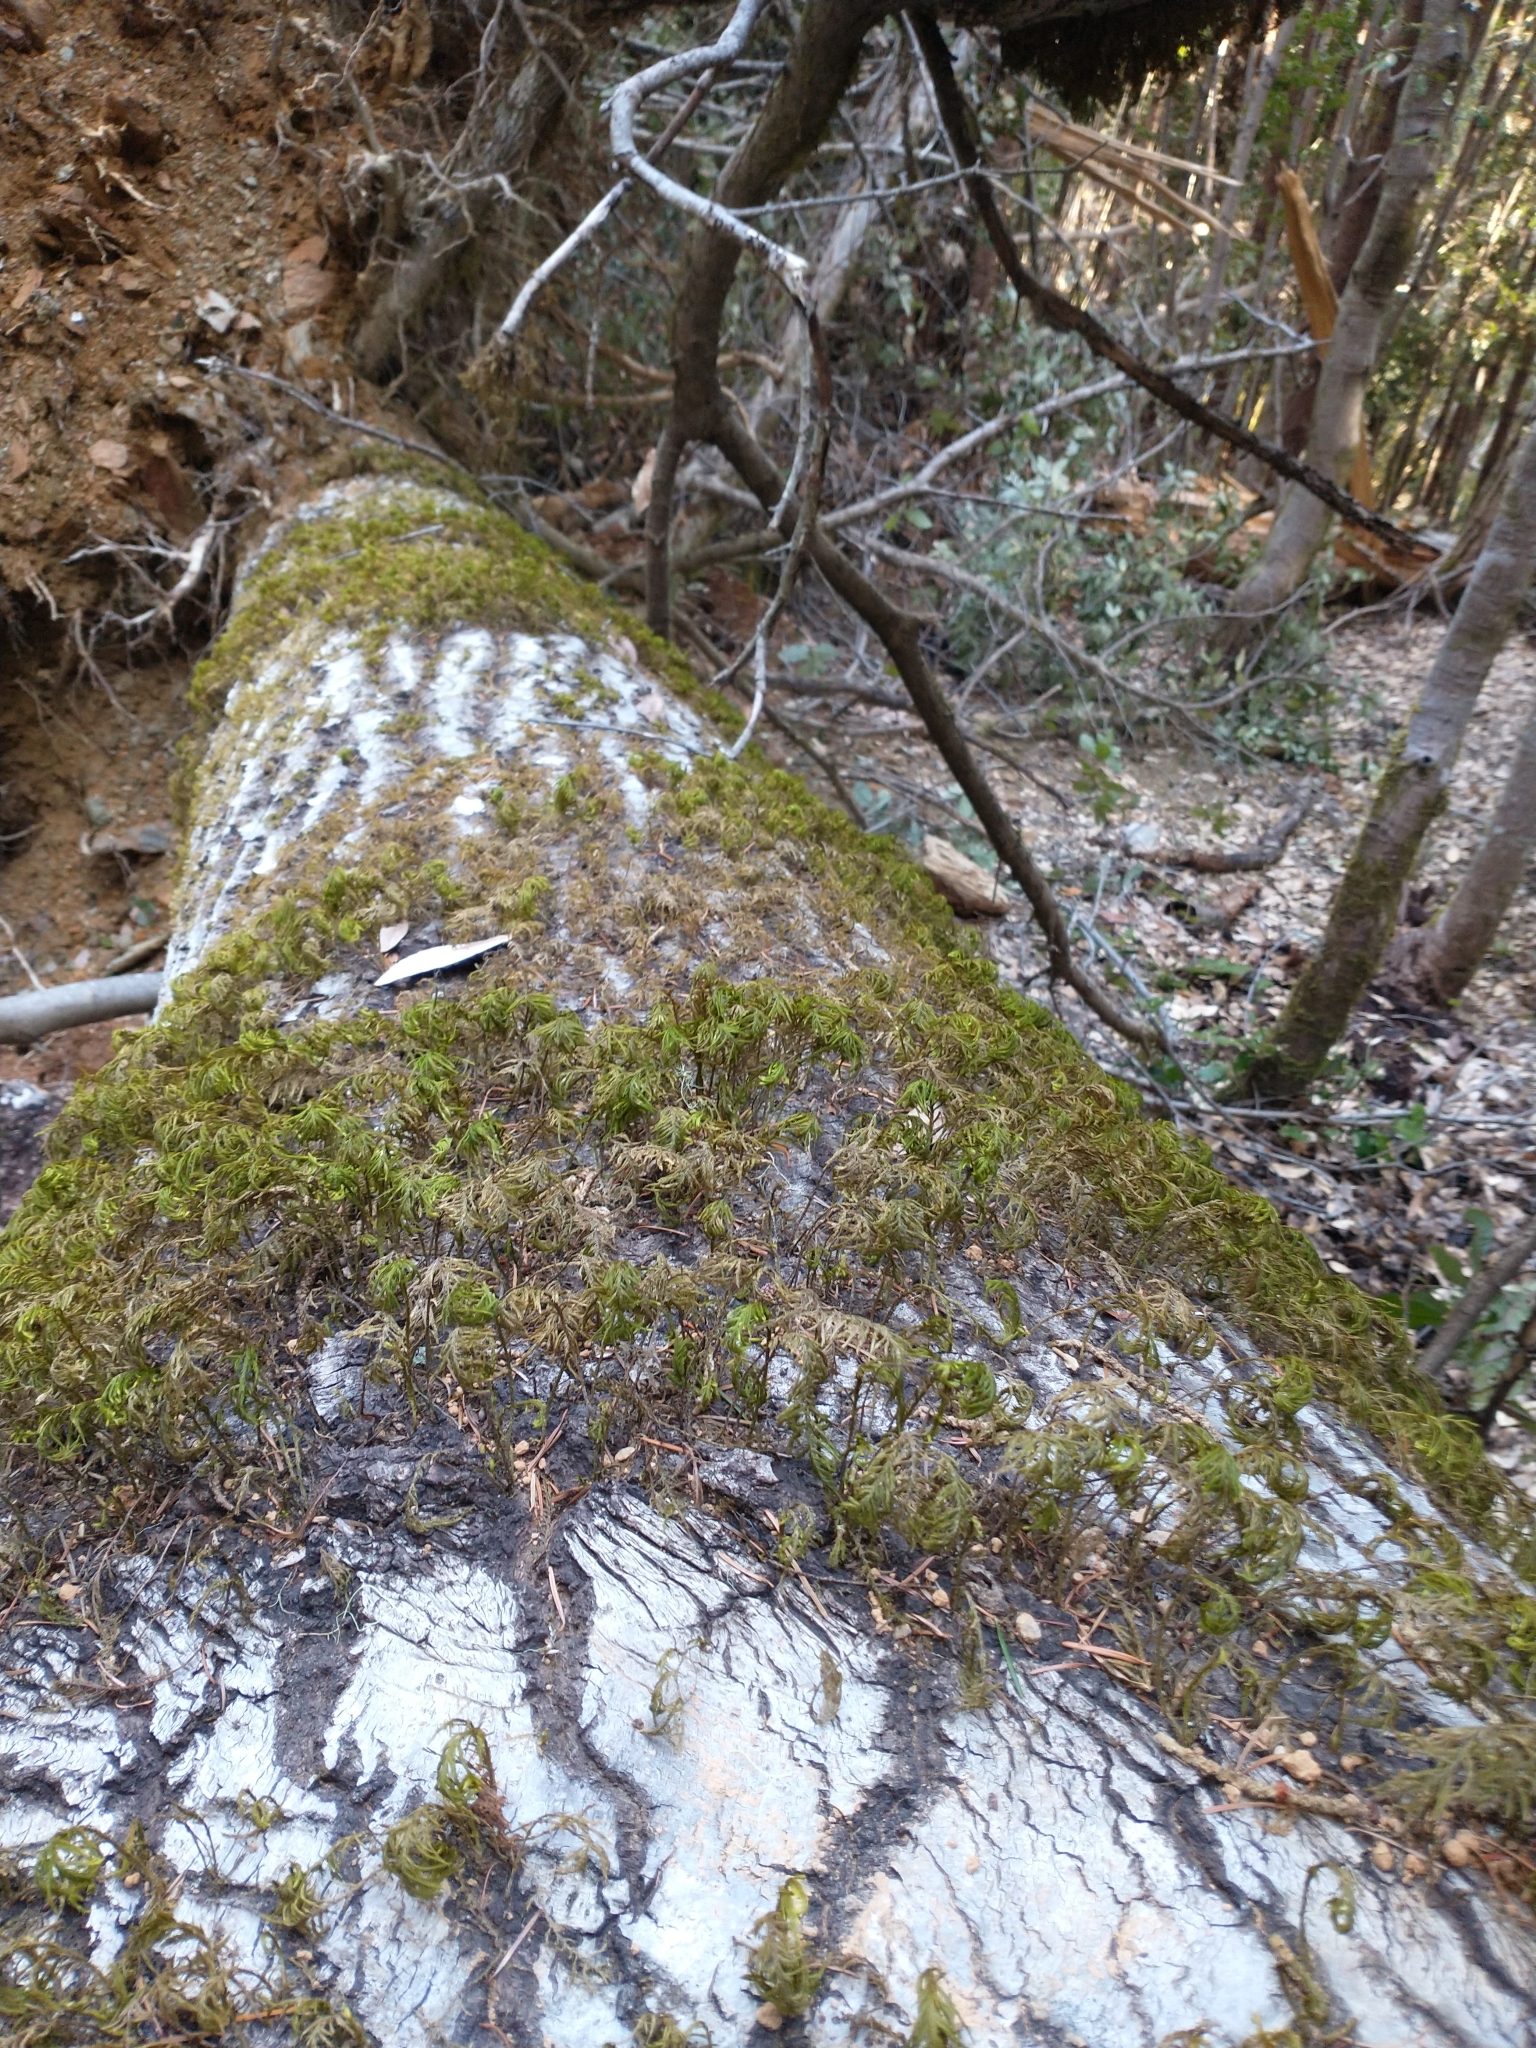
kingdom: Plantae
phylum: Bryophyta
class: Bryopsida
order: Hypnales
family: Cryphaeaceae
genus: Dendroalsia
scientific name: Dendroalsia abietina
